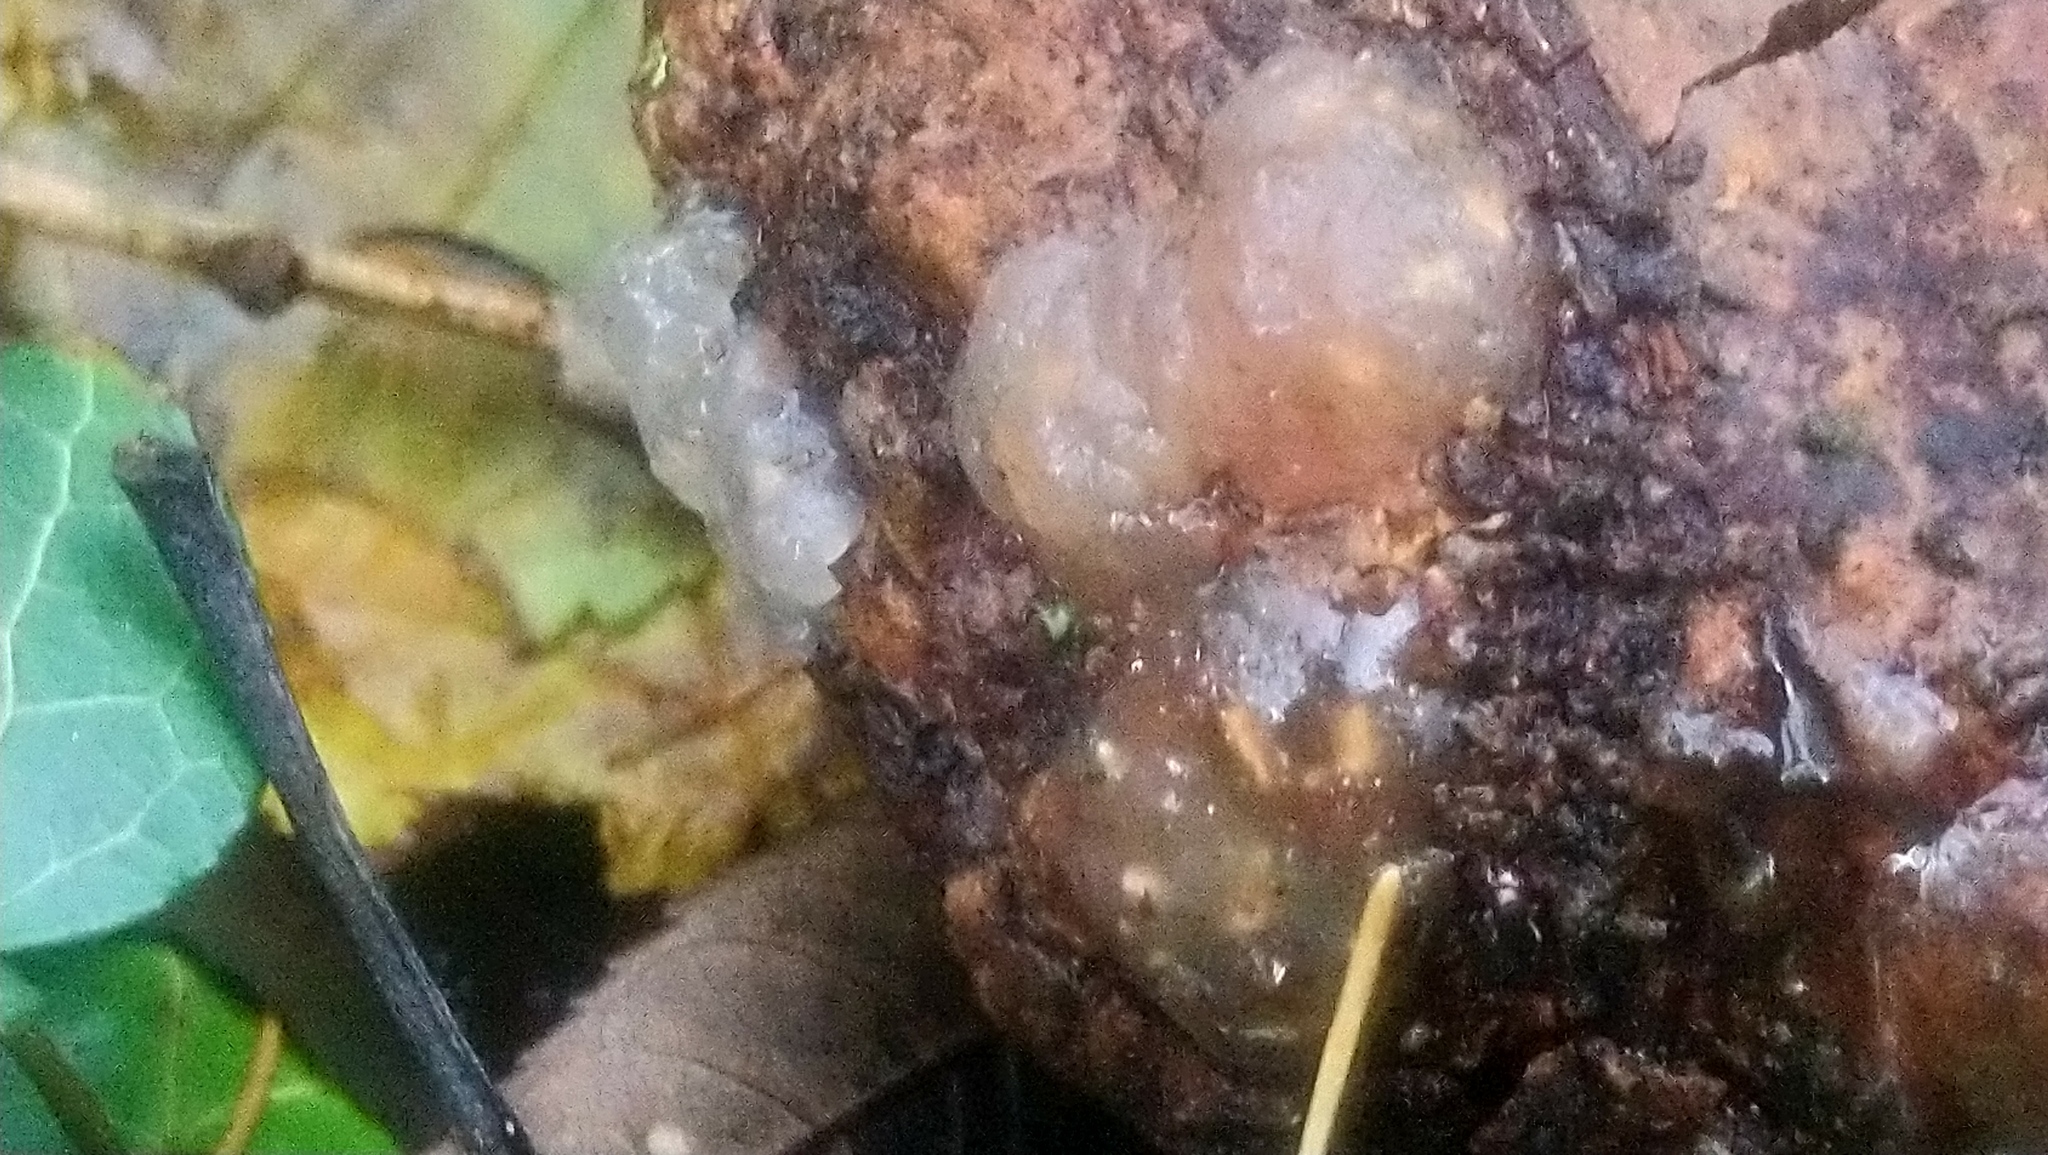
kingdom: Fungi
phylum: Basidiomycota
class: Agaricomycetes
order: Auriculariales
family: Hyaloriaceae
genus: Myxarium
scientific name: Myxarium nucleatum
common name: Crystal brain fungus
